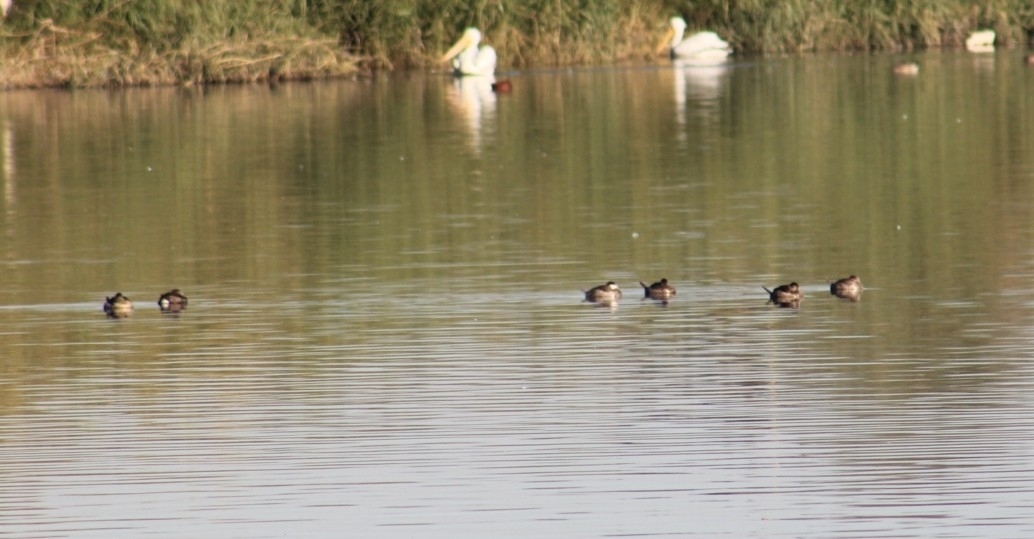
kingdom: Animalia
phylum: Chordata
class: Aves
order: Anseriformes
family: Anatidae
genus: Oxyura
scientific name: Oxyura jamaicensis
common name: Ruddy duck
